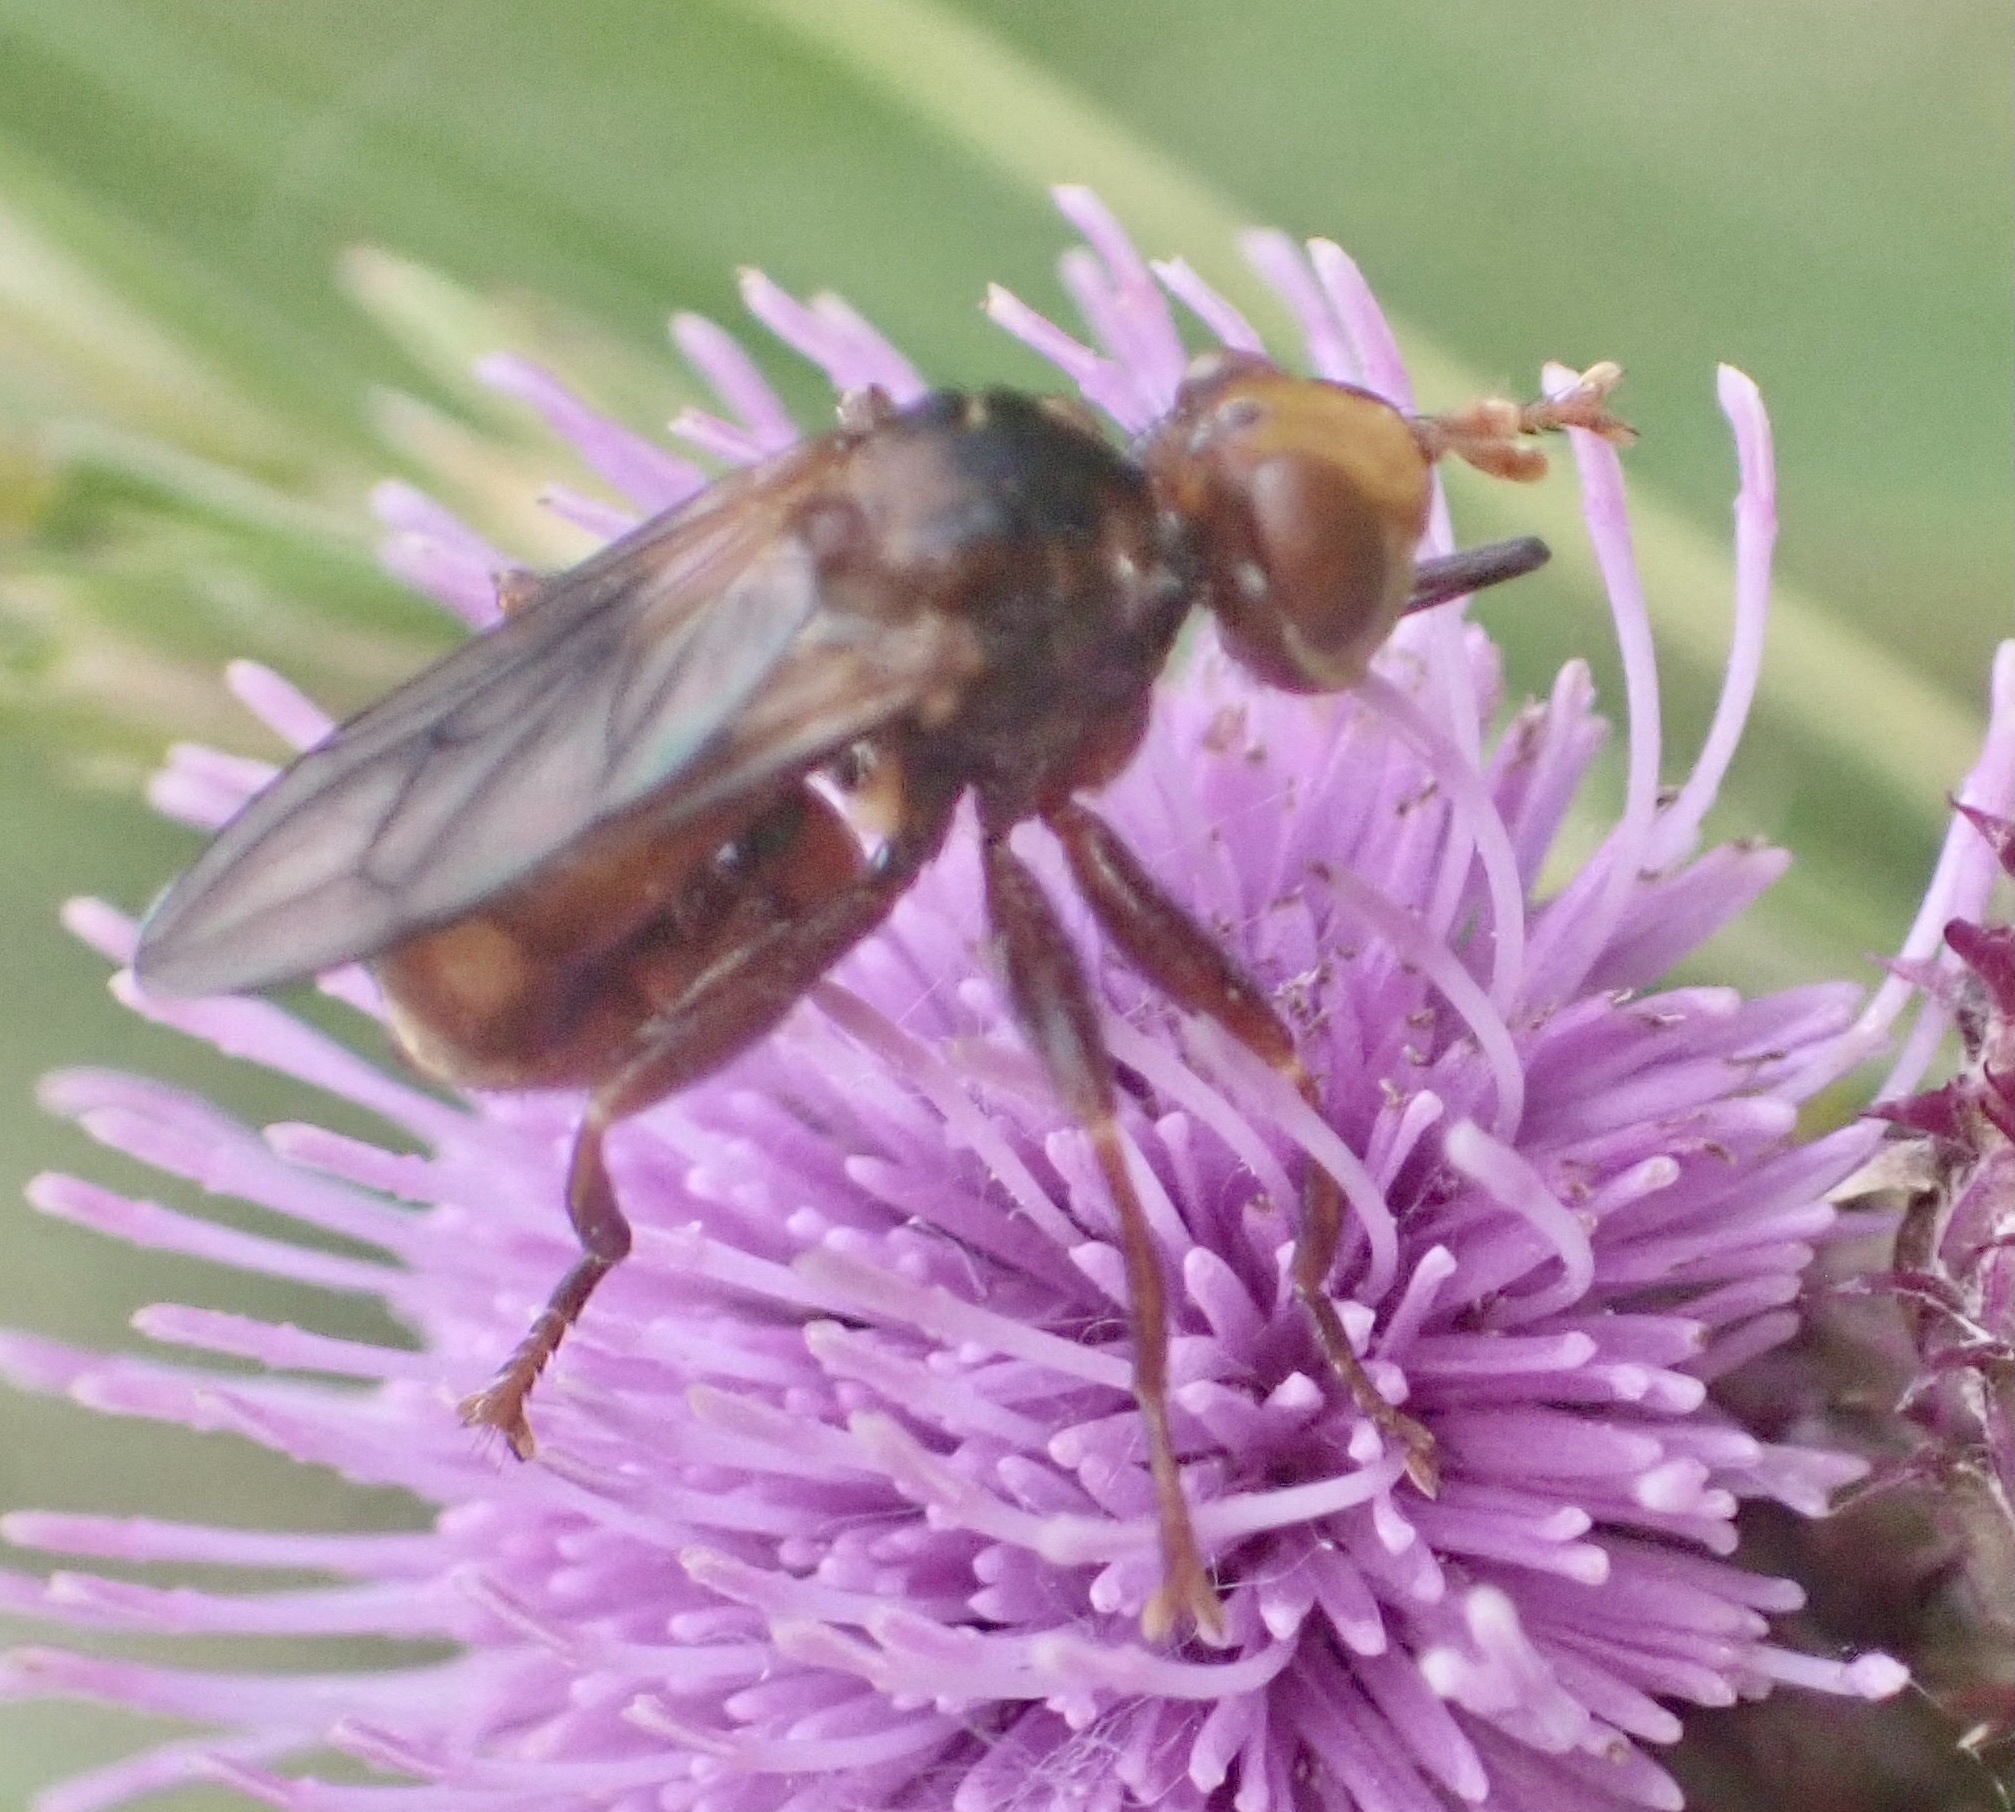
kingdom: Animalia
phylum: Arthropoda
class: Insecta
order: Diptera
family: Conopidae
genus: Sicus
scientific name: Sicus ferrugineus
